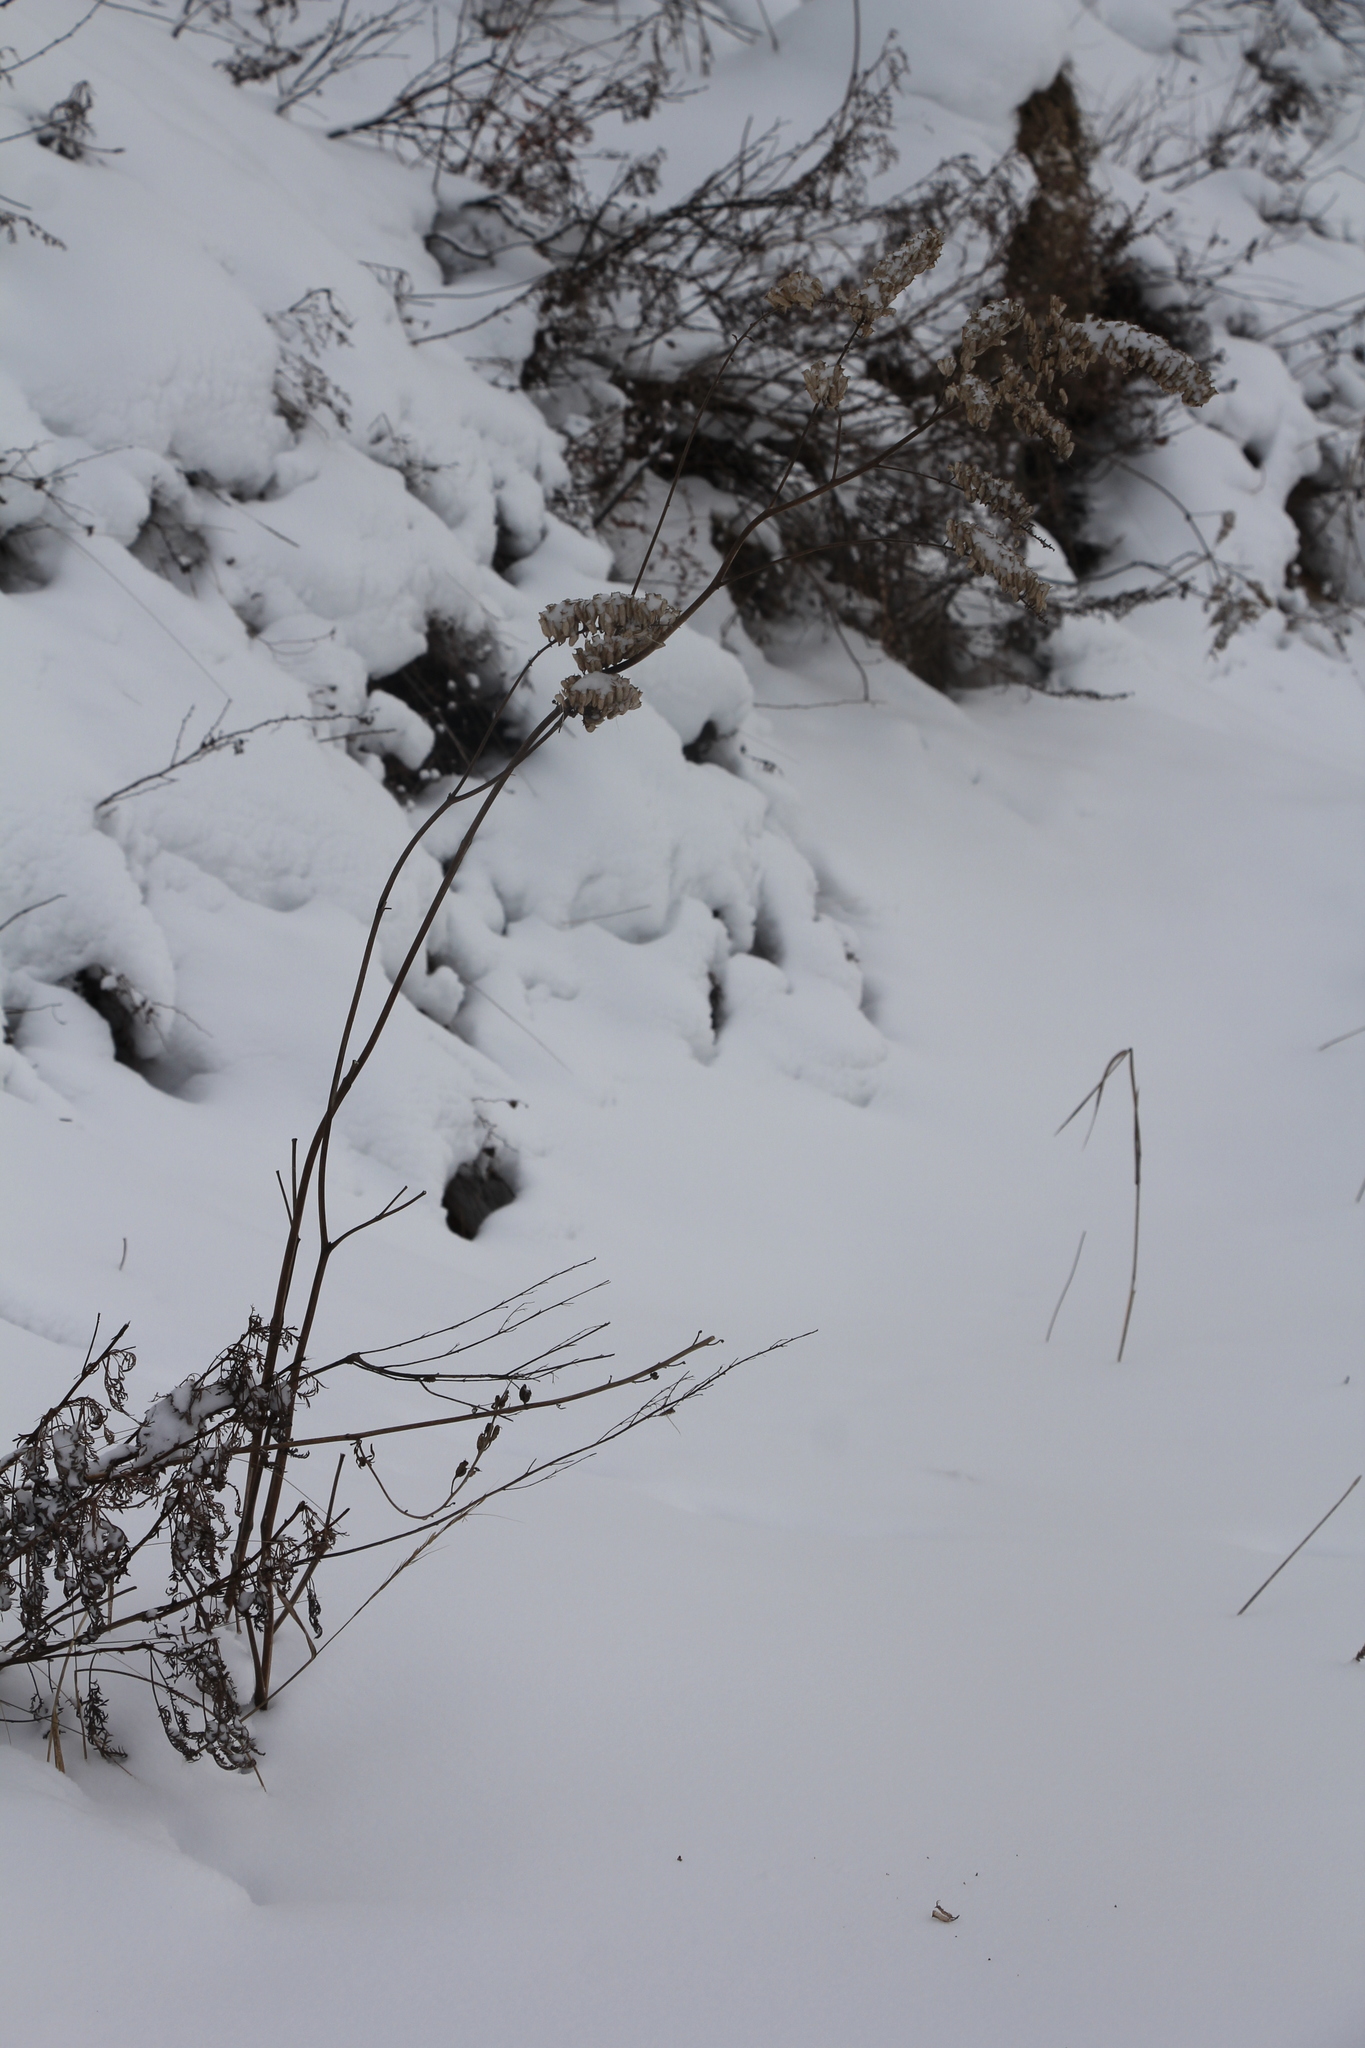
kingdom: Plantae
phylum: Tracheophyta
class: Magnoliopsida
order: Ranunculales
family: Ranunculaceae
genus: Actaea
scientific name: Actaea cimicifuga
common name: Chinese cimicifuga
